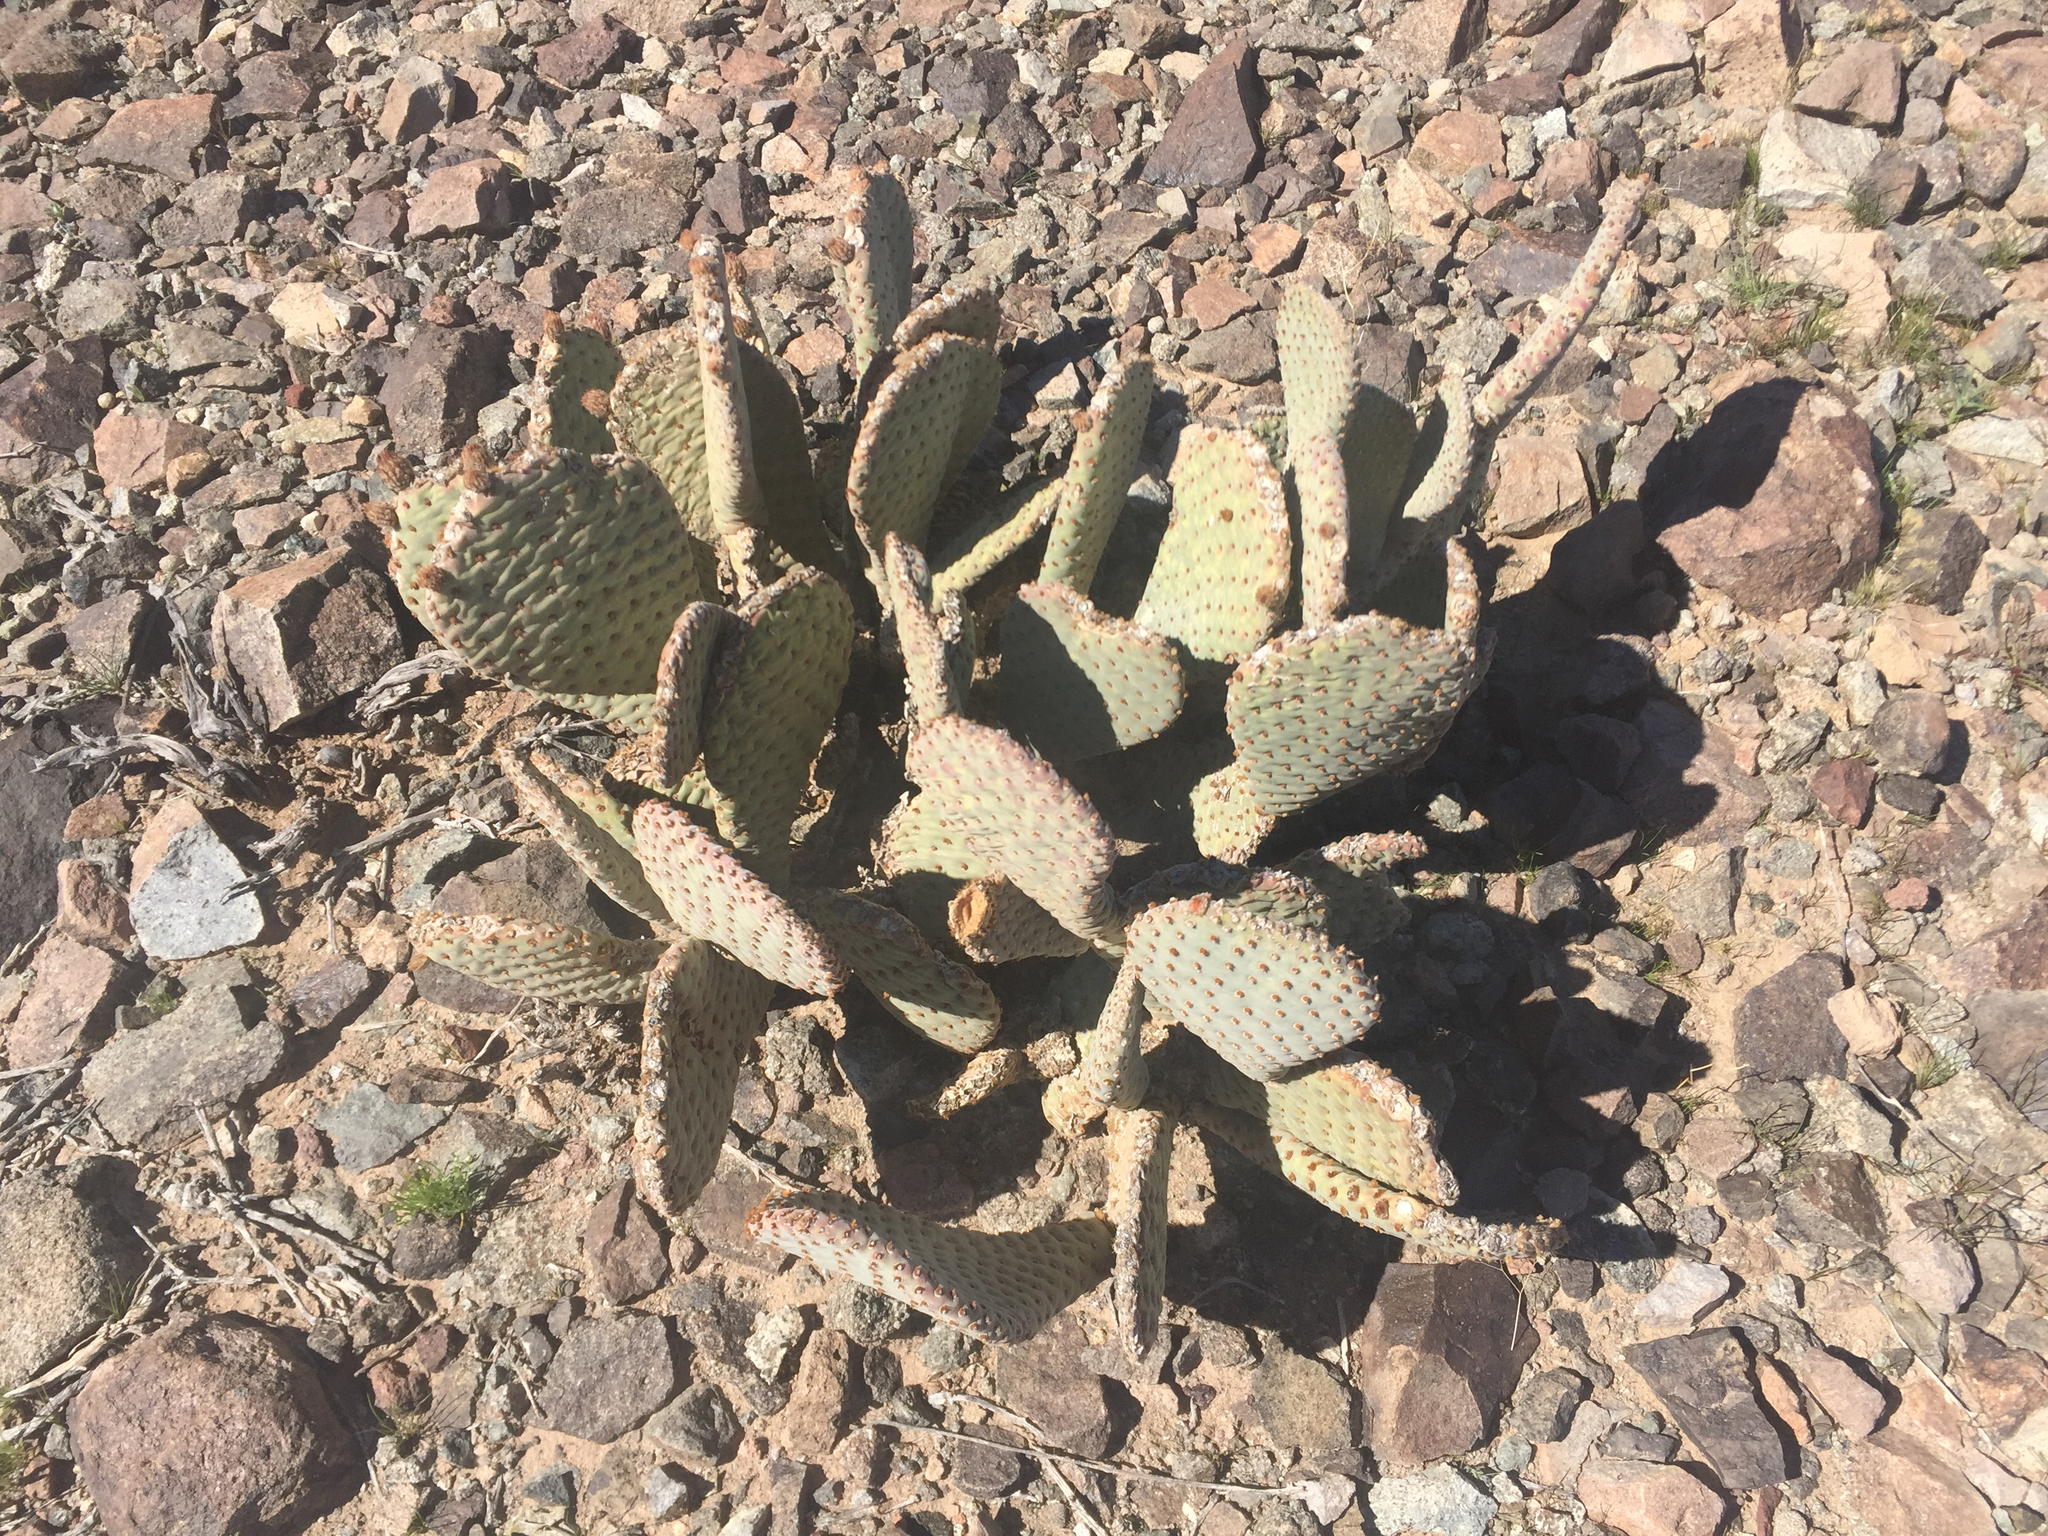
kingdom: Plantae
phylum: Tracheophyta
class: Magnoliopsida
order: Caryophyllales
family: Cactaceae
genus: Opuntia
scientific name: Opuntia basilaris
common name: Beavertail prickly-pear
